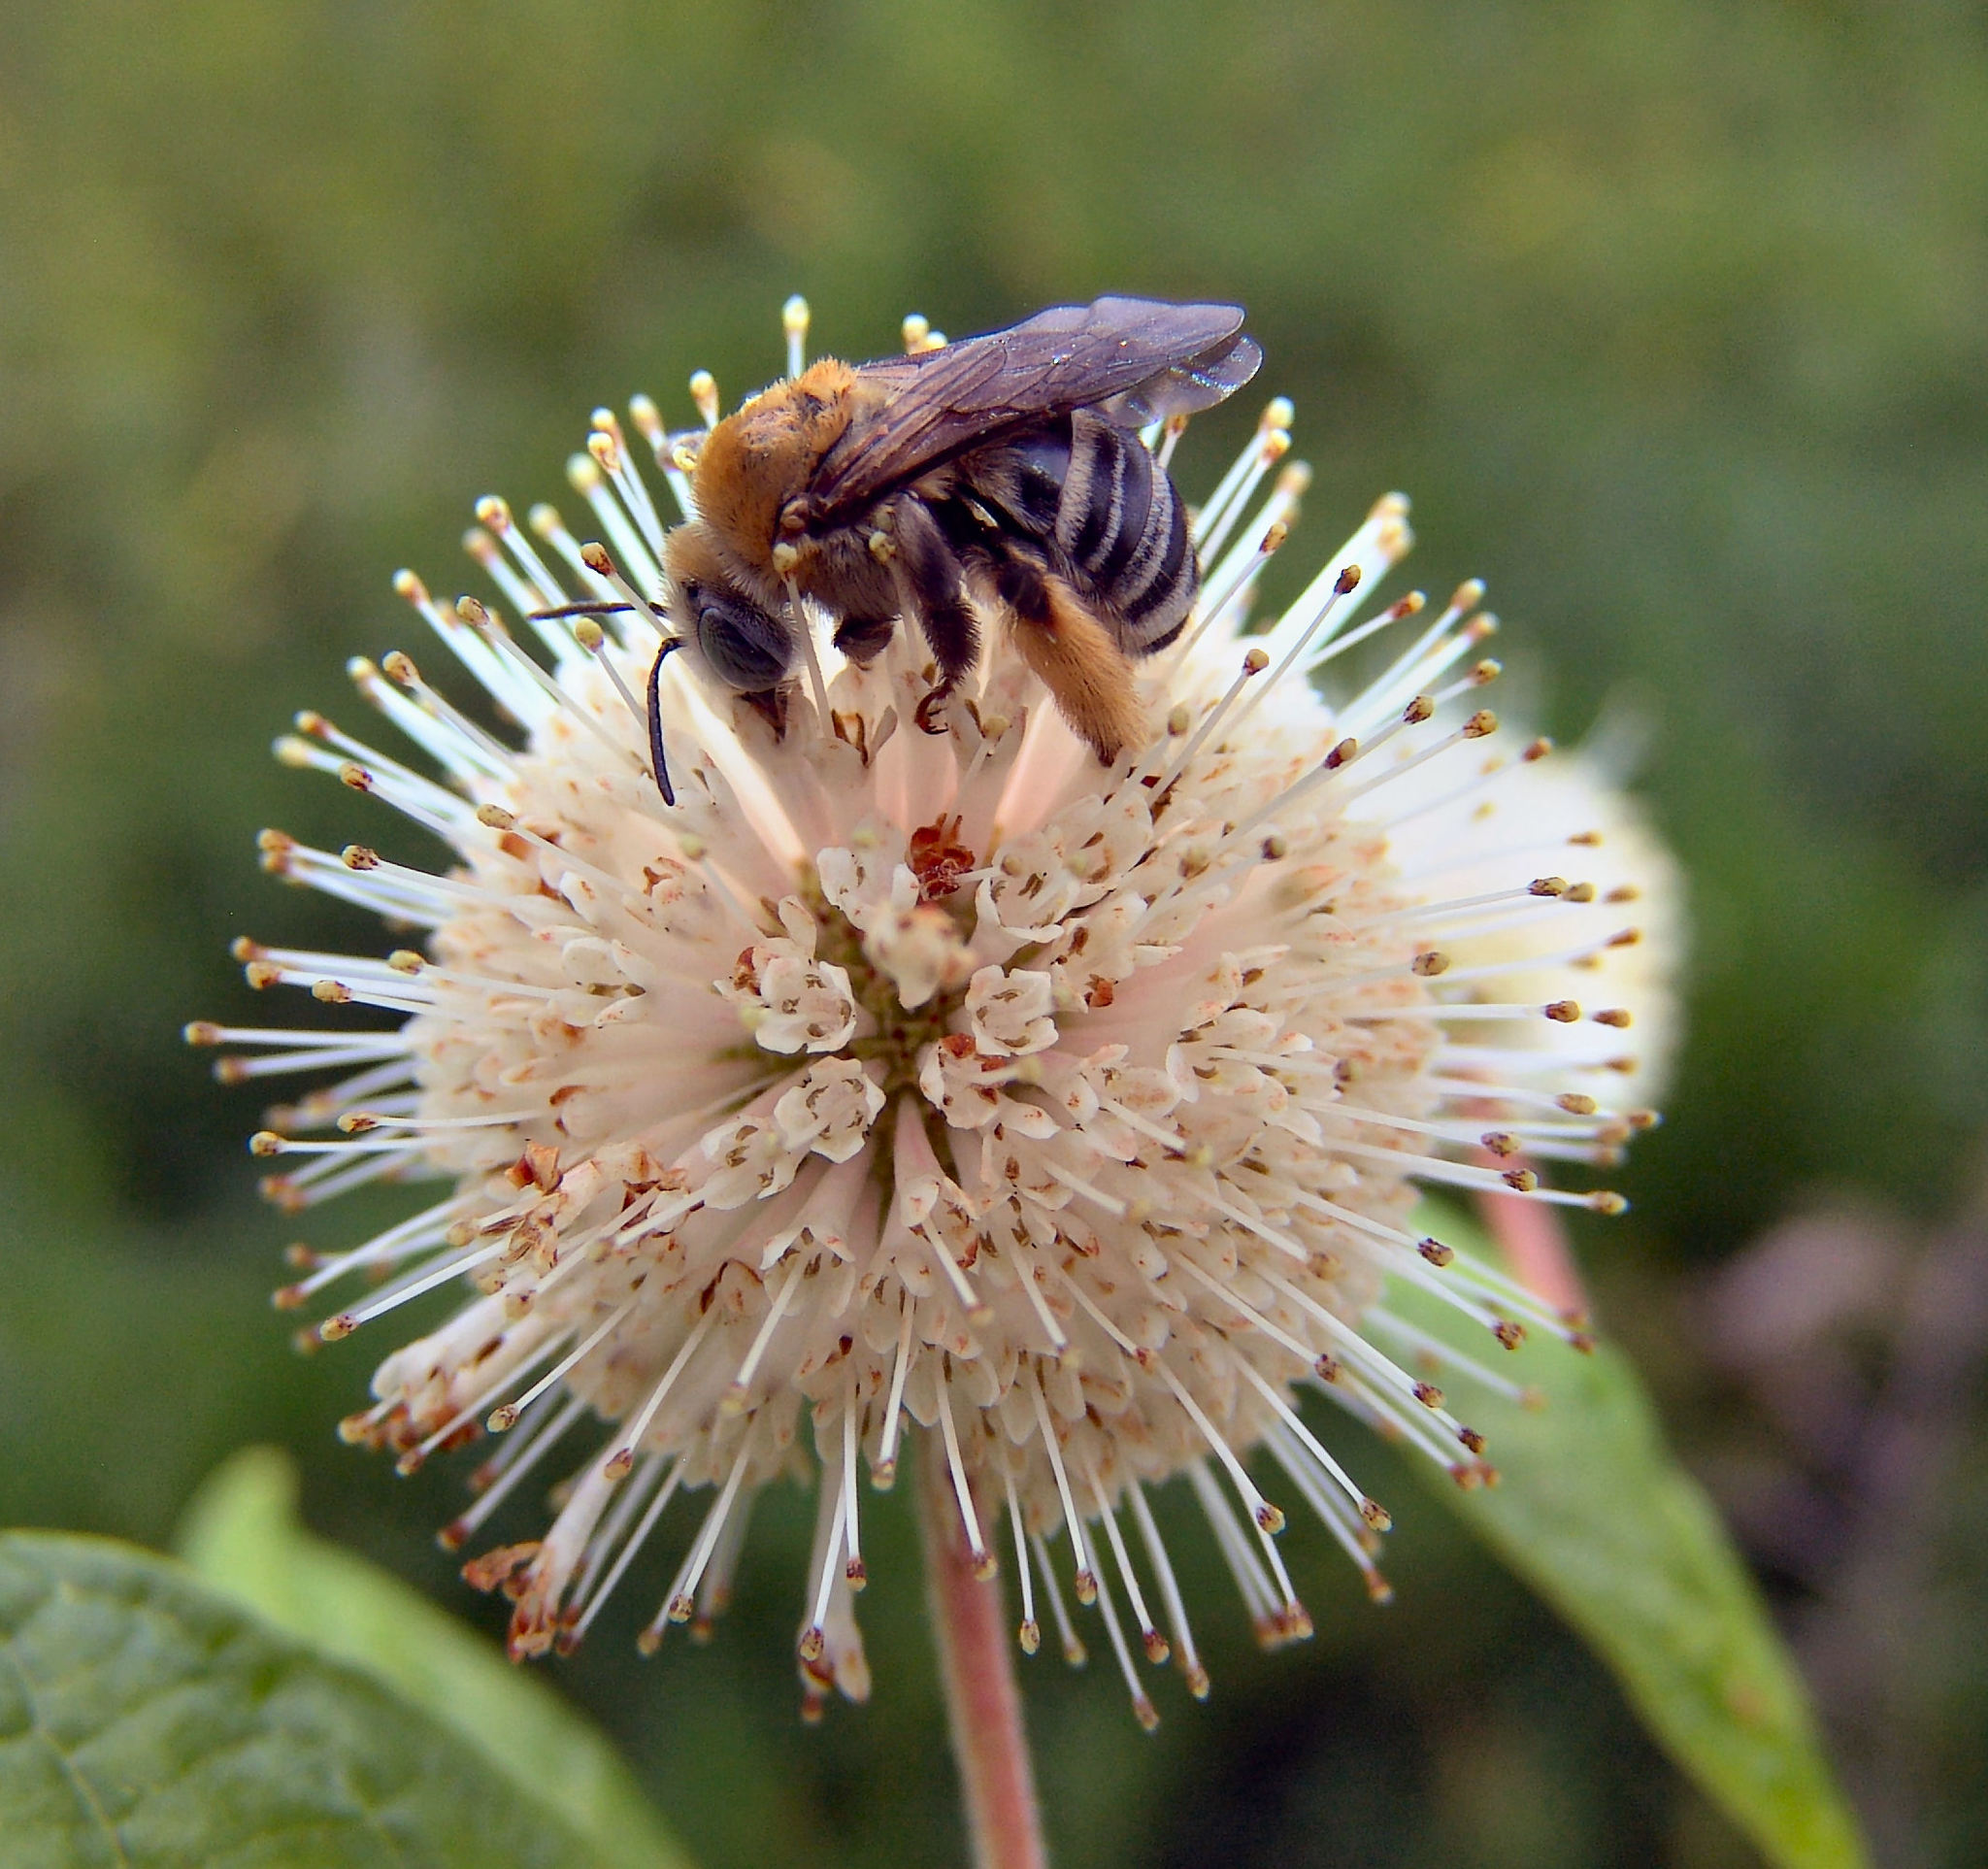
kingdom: Animalia
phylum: Arthropoda
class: Insecta
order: Hymenoptera
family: Apidae
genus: Melissodes
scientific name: Melissodes comptoides
